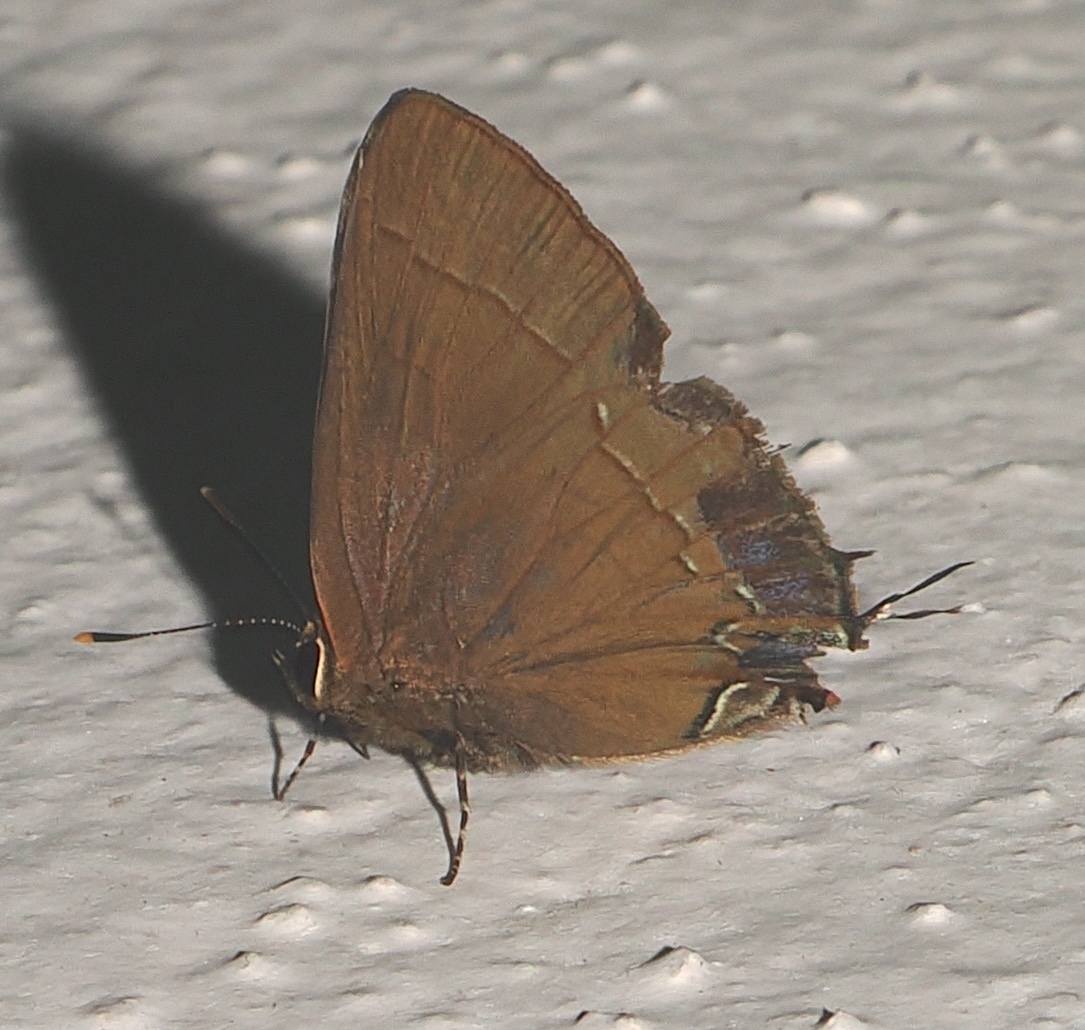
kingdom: Animalia
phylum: Arthropoda
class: Insecta
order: Lepidoptera
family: Lycaenidae
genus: Ziegleria
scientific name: Ziegleria hesperitis
